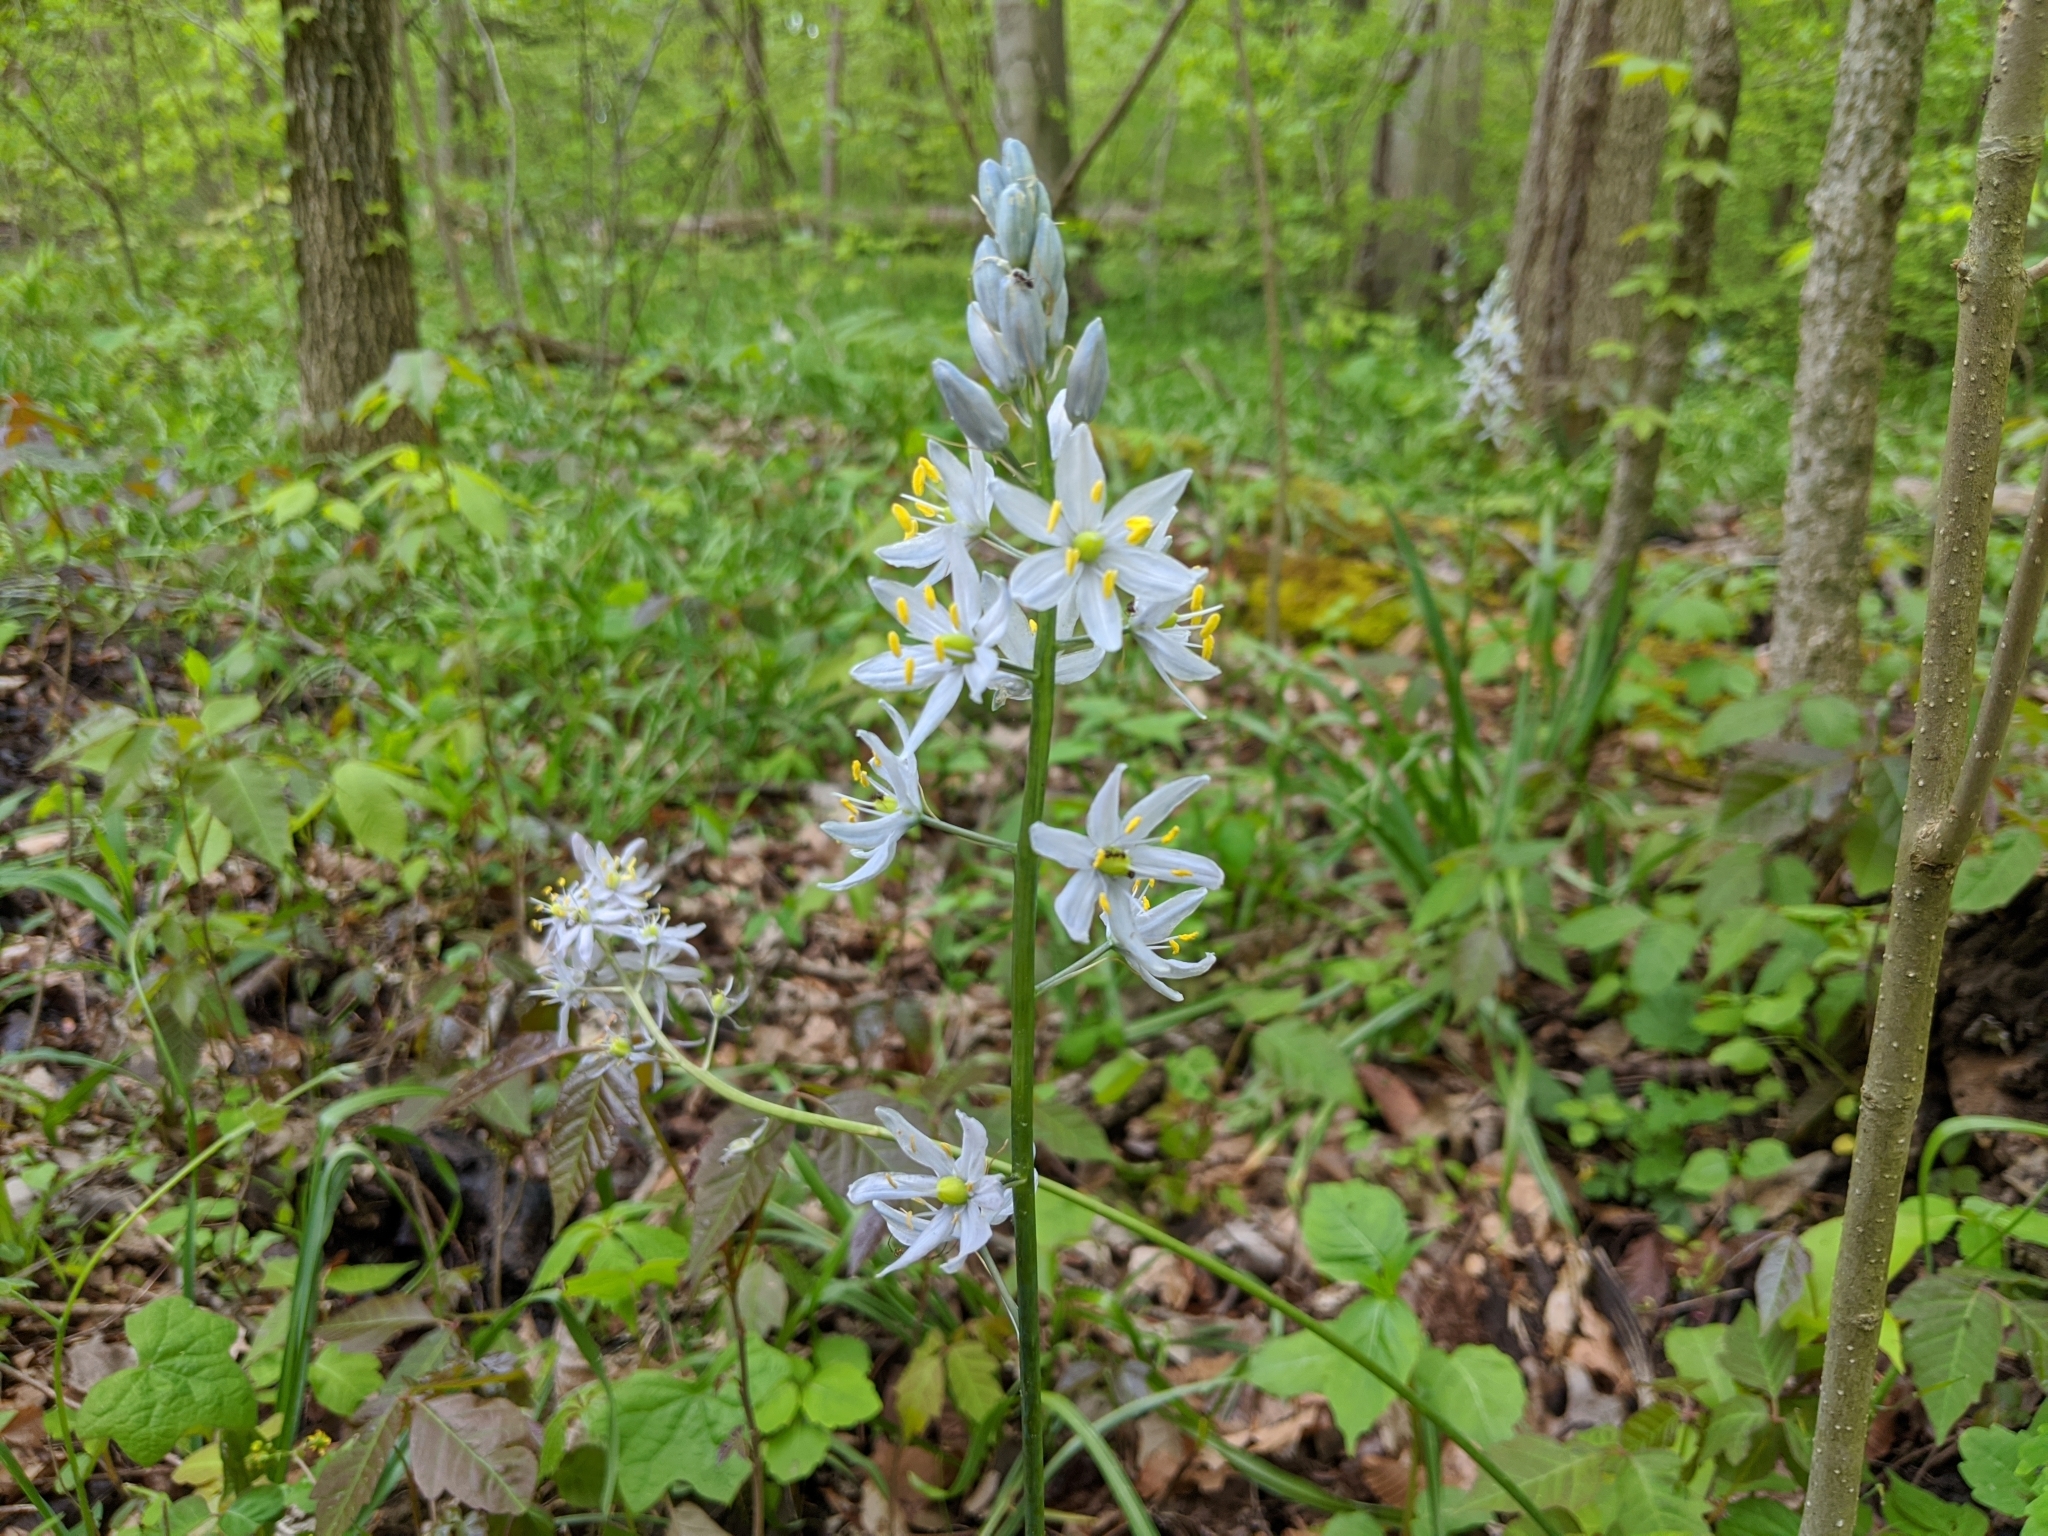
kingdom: Plantae
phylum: Tracheophyta
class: Liliopsida
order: Asparagales
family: Asparagaceae
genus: Camassia
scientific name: Camassia scilloides
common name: Wild hyacinth
